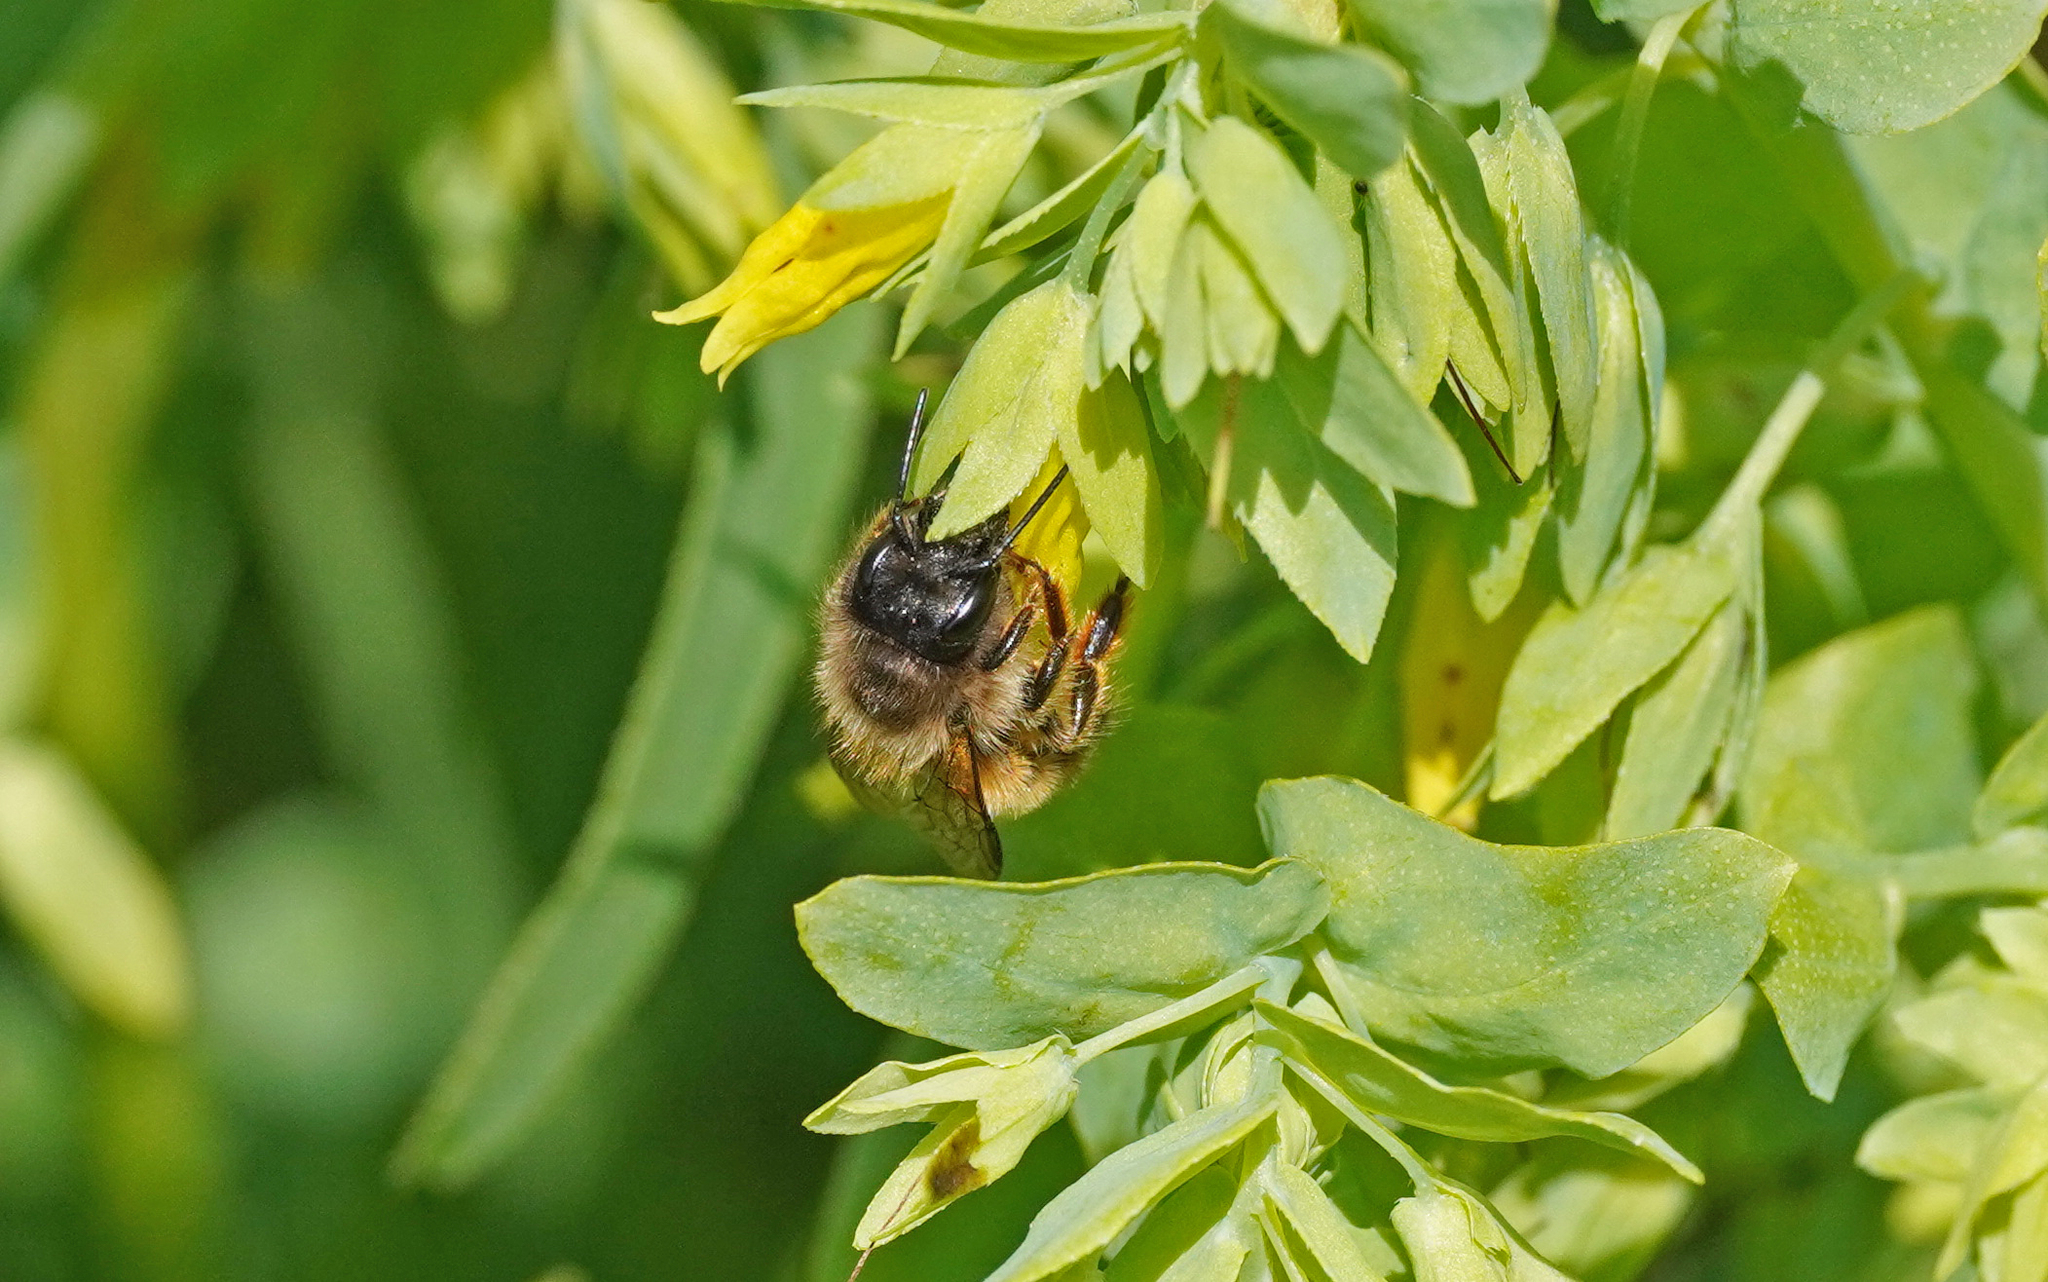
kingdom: Animalia
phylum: Arthropoda
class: Insecta
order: Hymenoptera
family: Megachilidae
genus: Osmia
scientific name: Osmia cerinthidis
